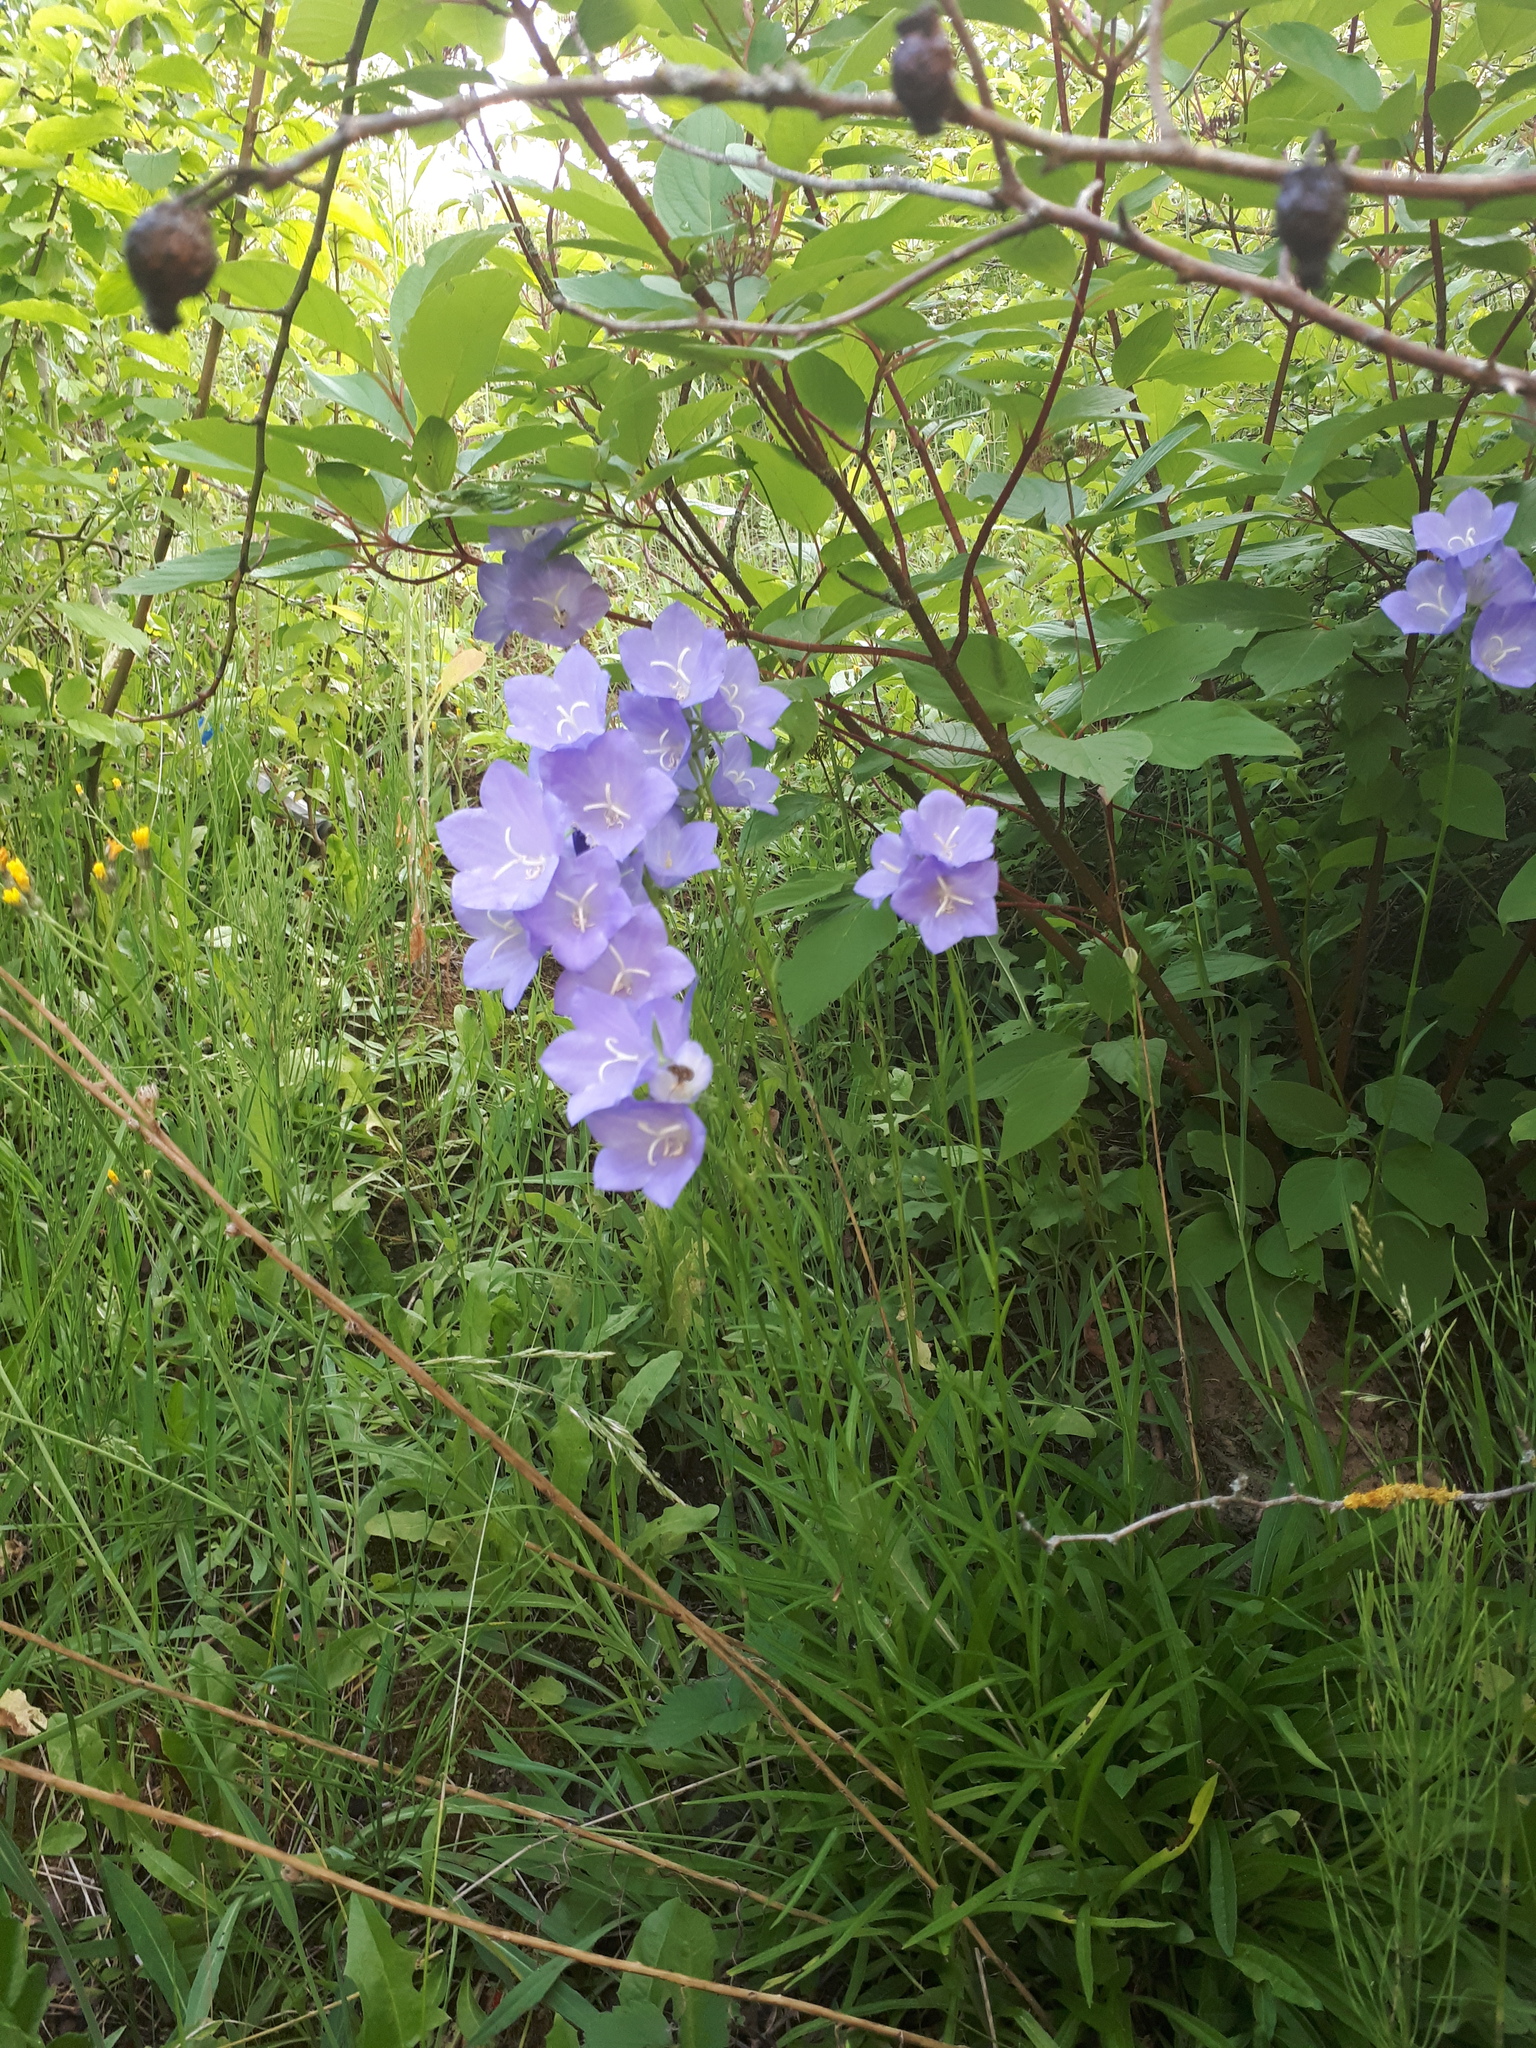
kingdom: Plantae
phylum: Tracheophyta
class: Magnoliopsida
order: Asterales
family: Campanulaceae
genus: Campanula
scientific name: Campanula persicifolia
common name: Peach-leaved bellflower
